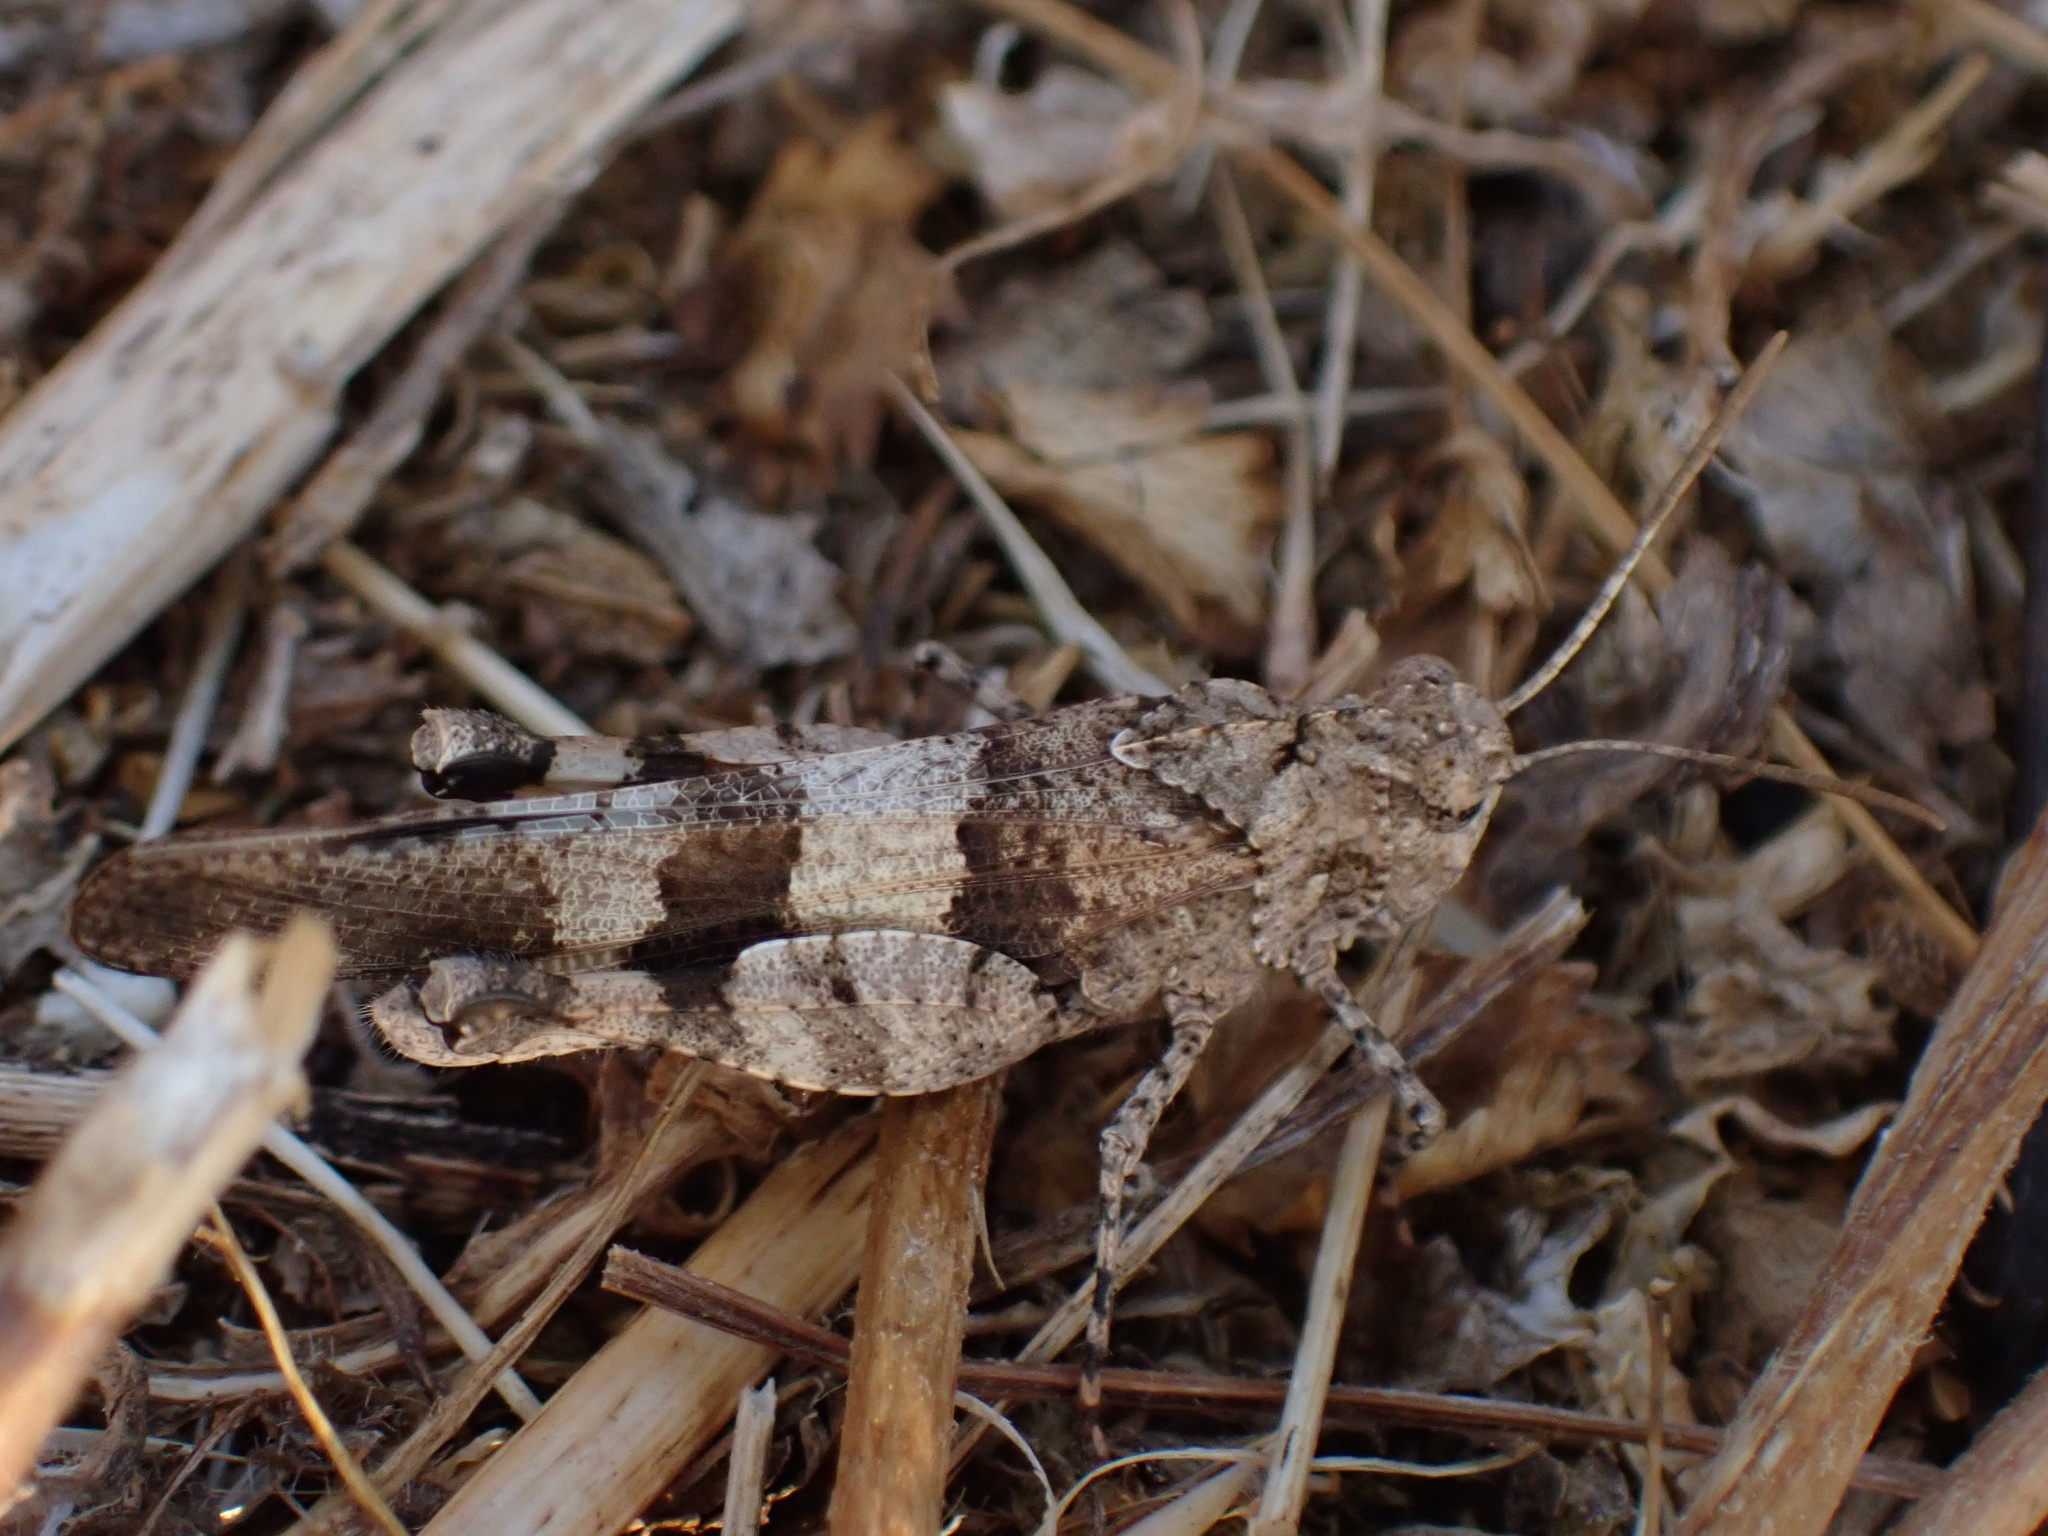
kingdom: Animalia
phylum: Arthropoda
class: Insecta
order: Orthoptera
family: Acrididae
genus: Oedipoda
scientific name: Oedipoda caerulescens
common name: Blue-winged grasshopper
